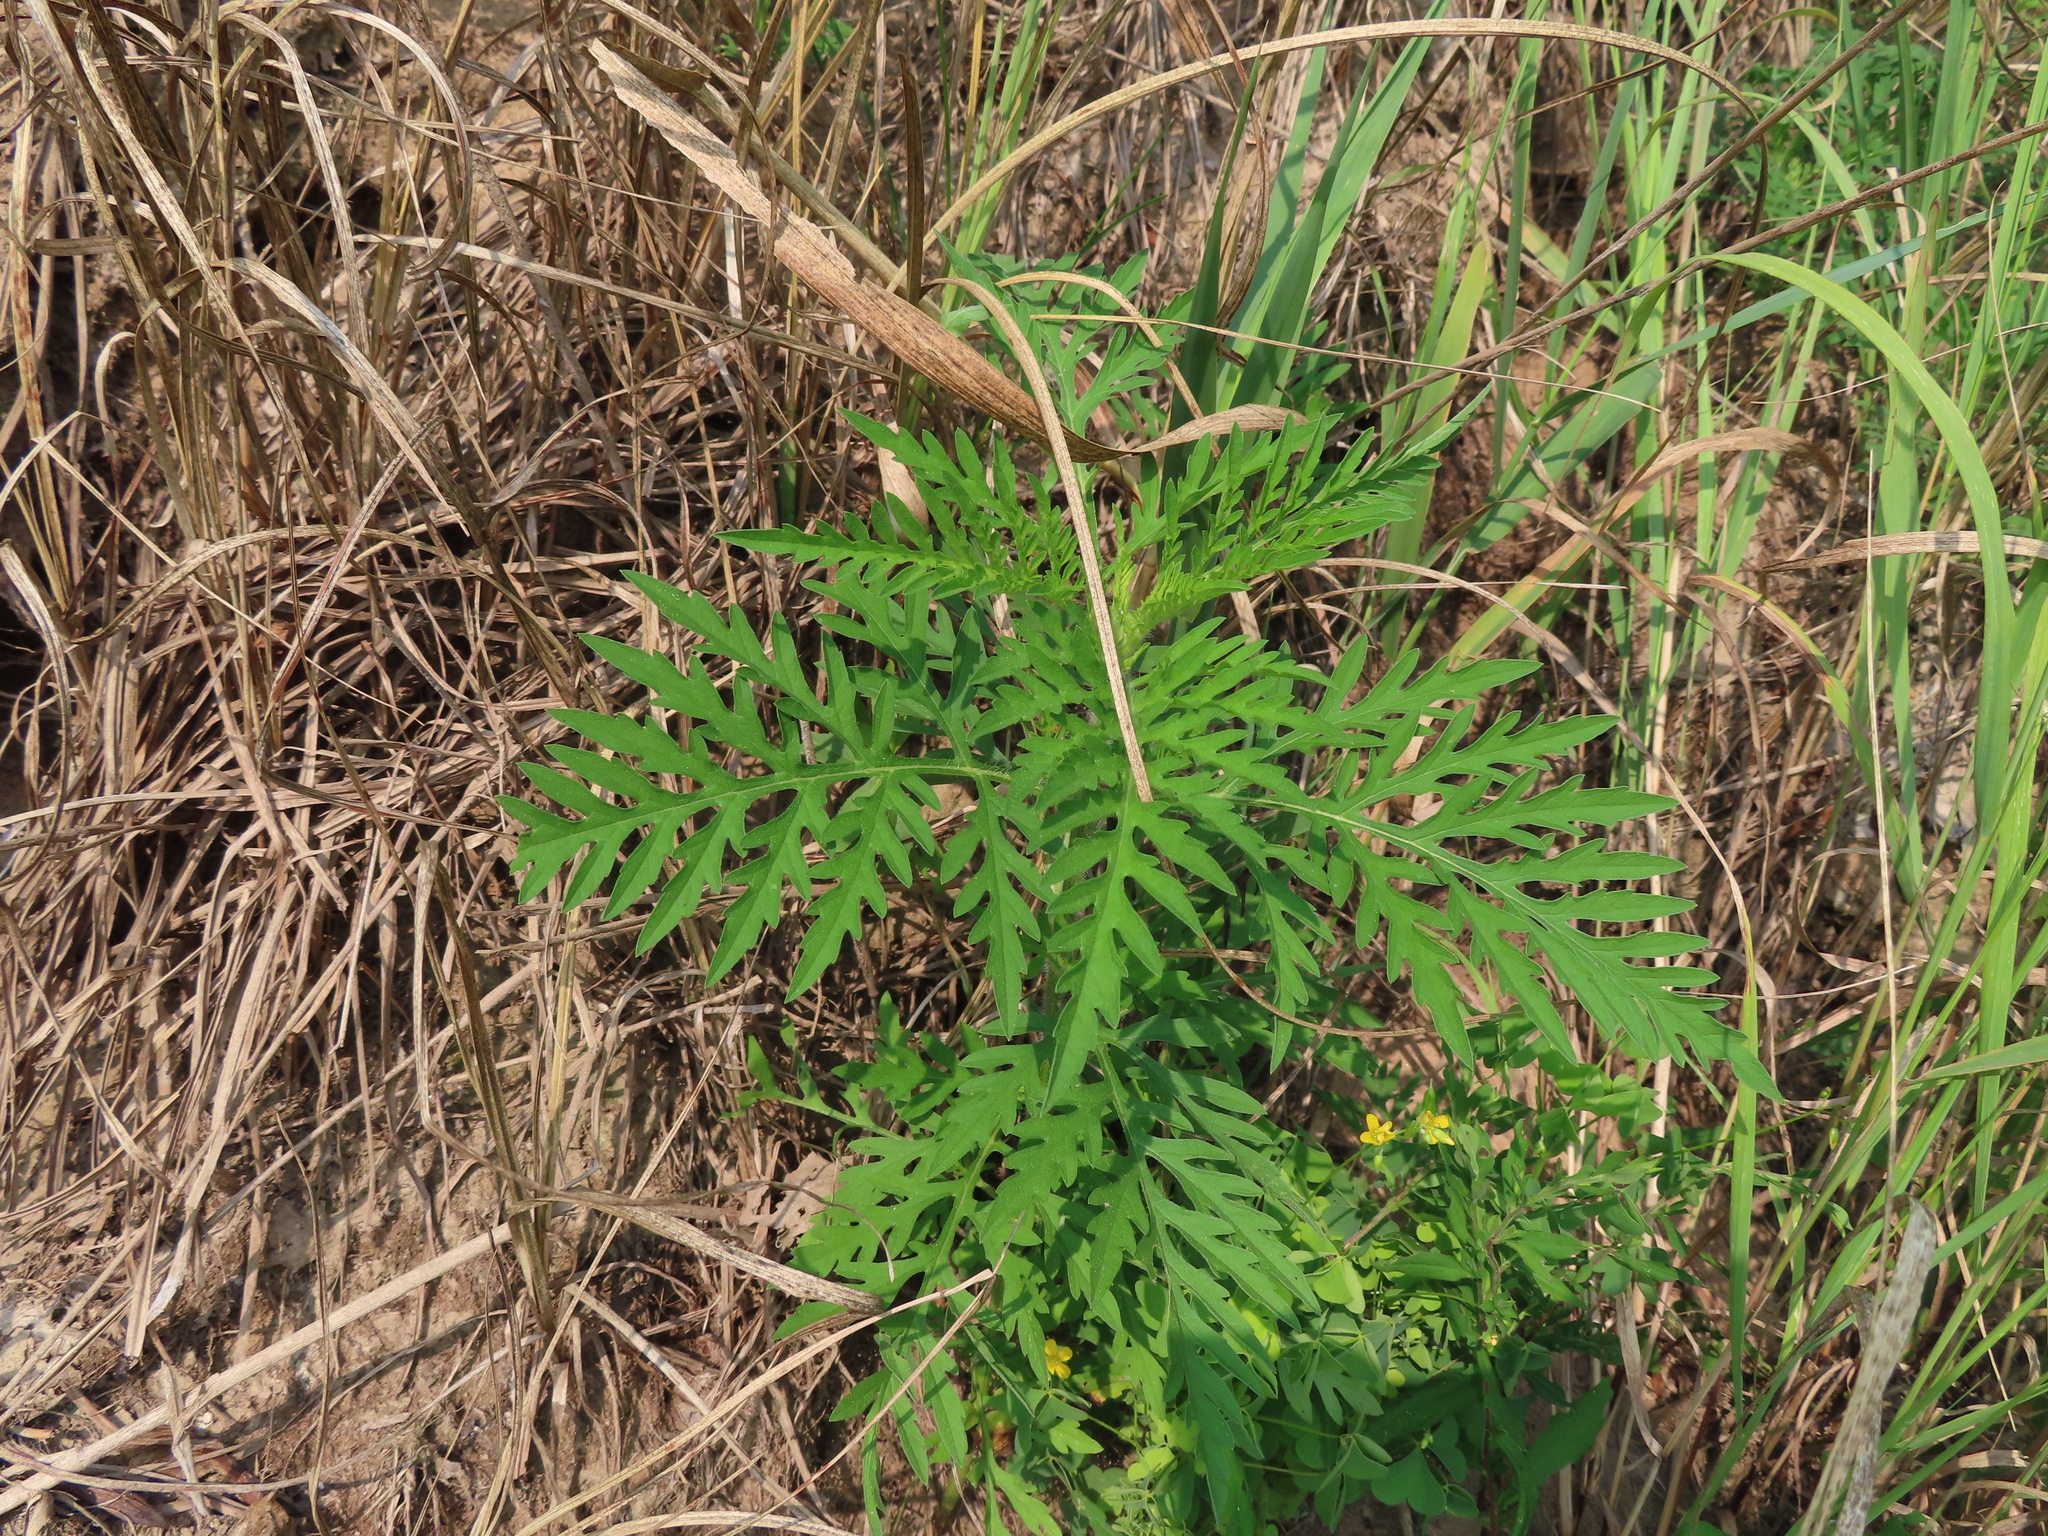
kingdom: Plantae
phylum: Tracheophyta
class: Magnoliopsida
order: Asterales
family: Asteraceae
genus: Ambrosia
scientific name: Ambrosia artemisiifolia
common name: Annual ragweed
